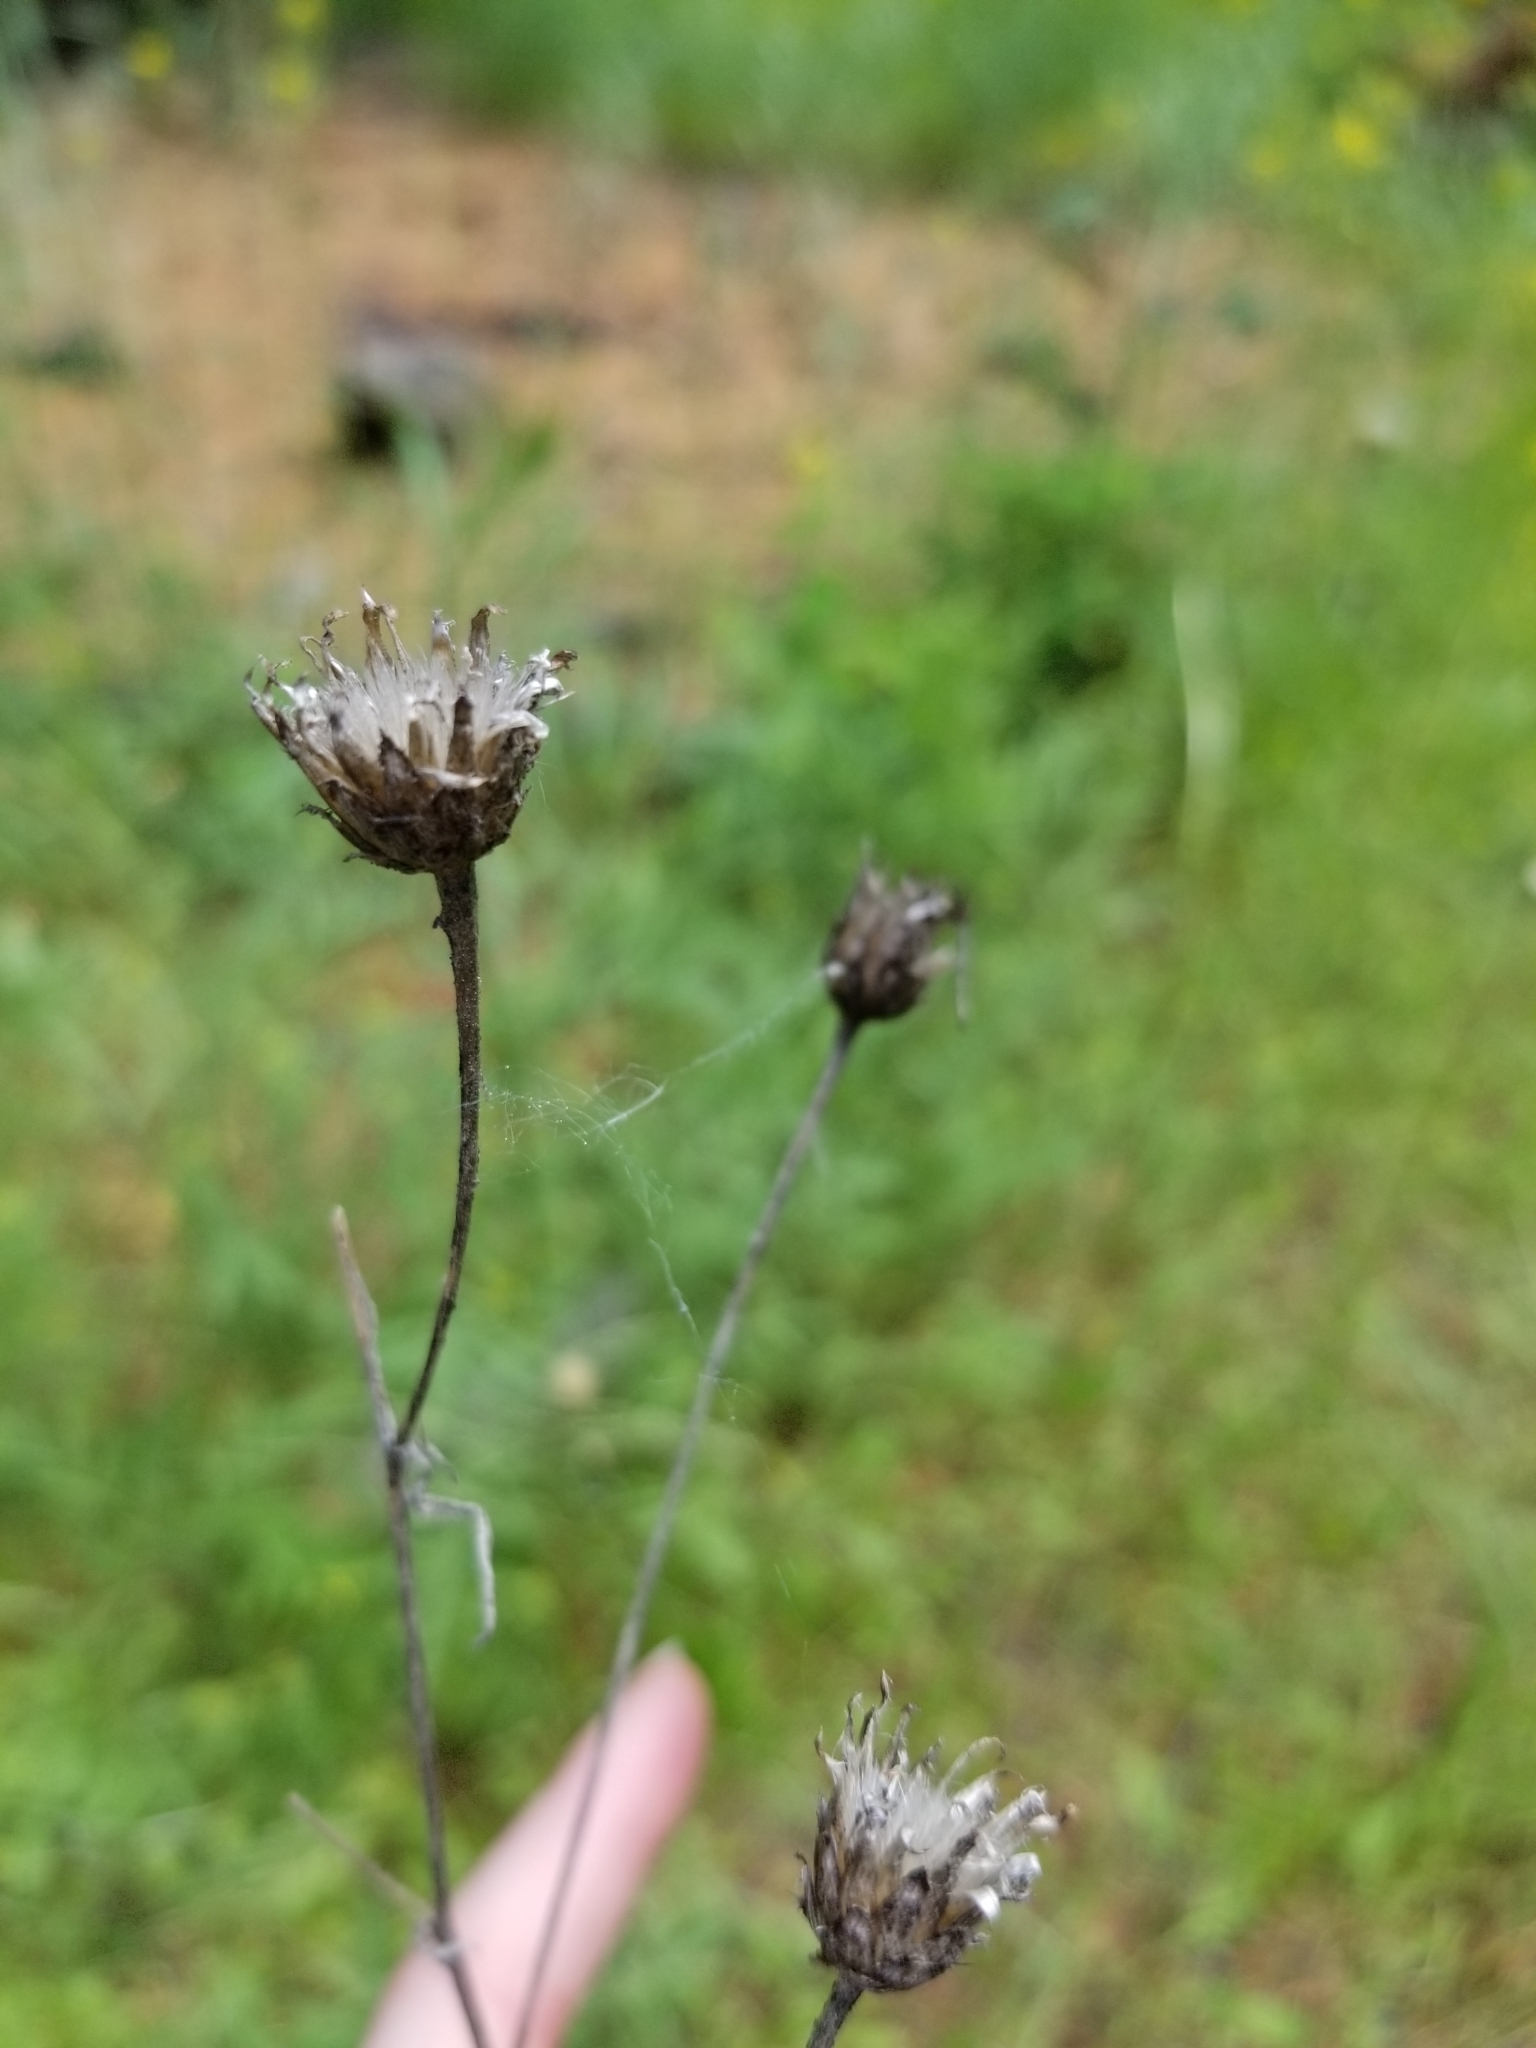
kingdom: Plantae
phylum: Tracheophyta
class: Magnoliopsida
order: Asterales
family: Asteraceae
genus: Centaurea
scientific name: Centaurea stoebe
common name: Spotted knapweed
